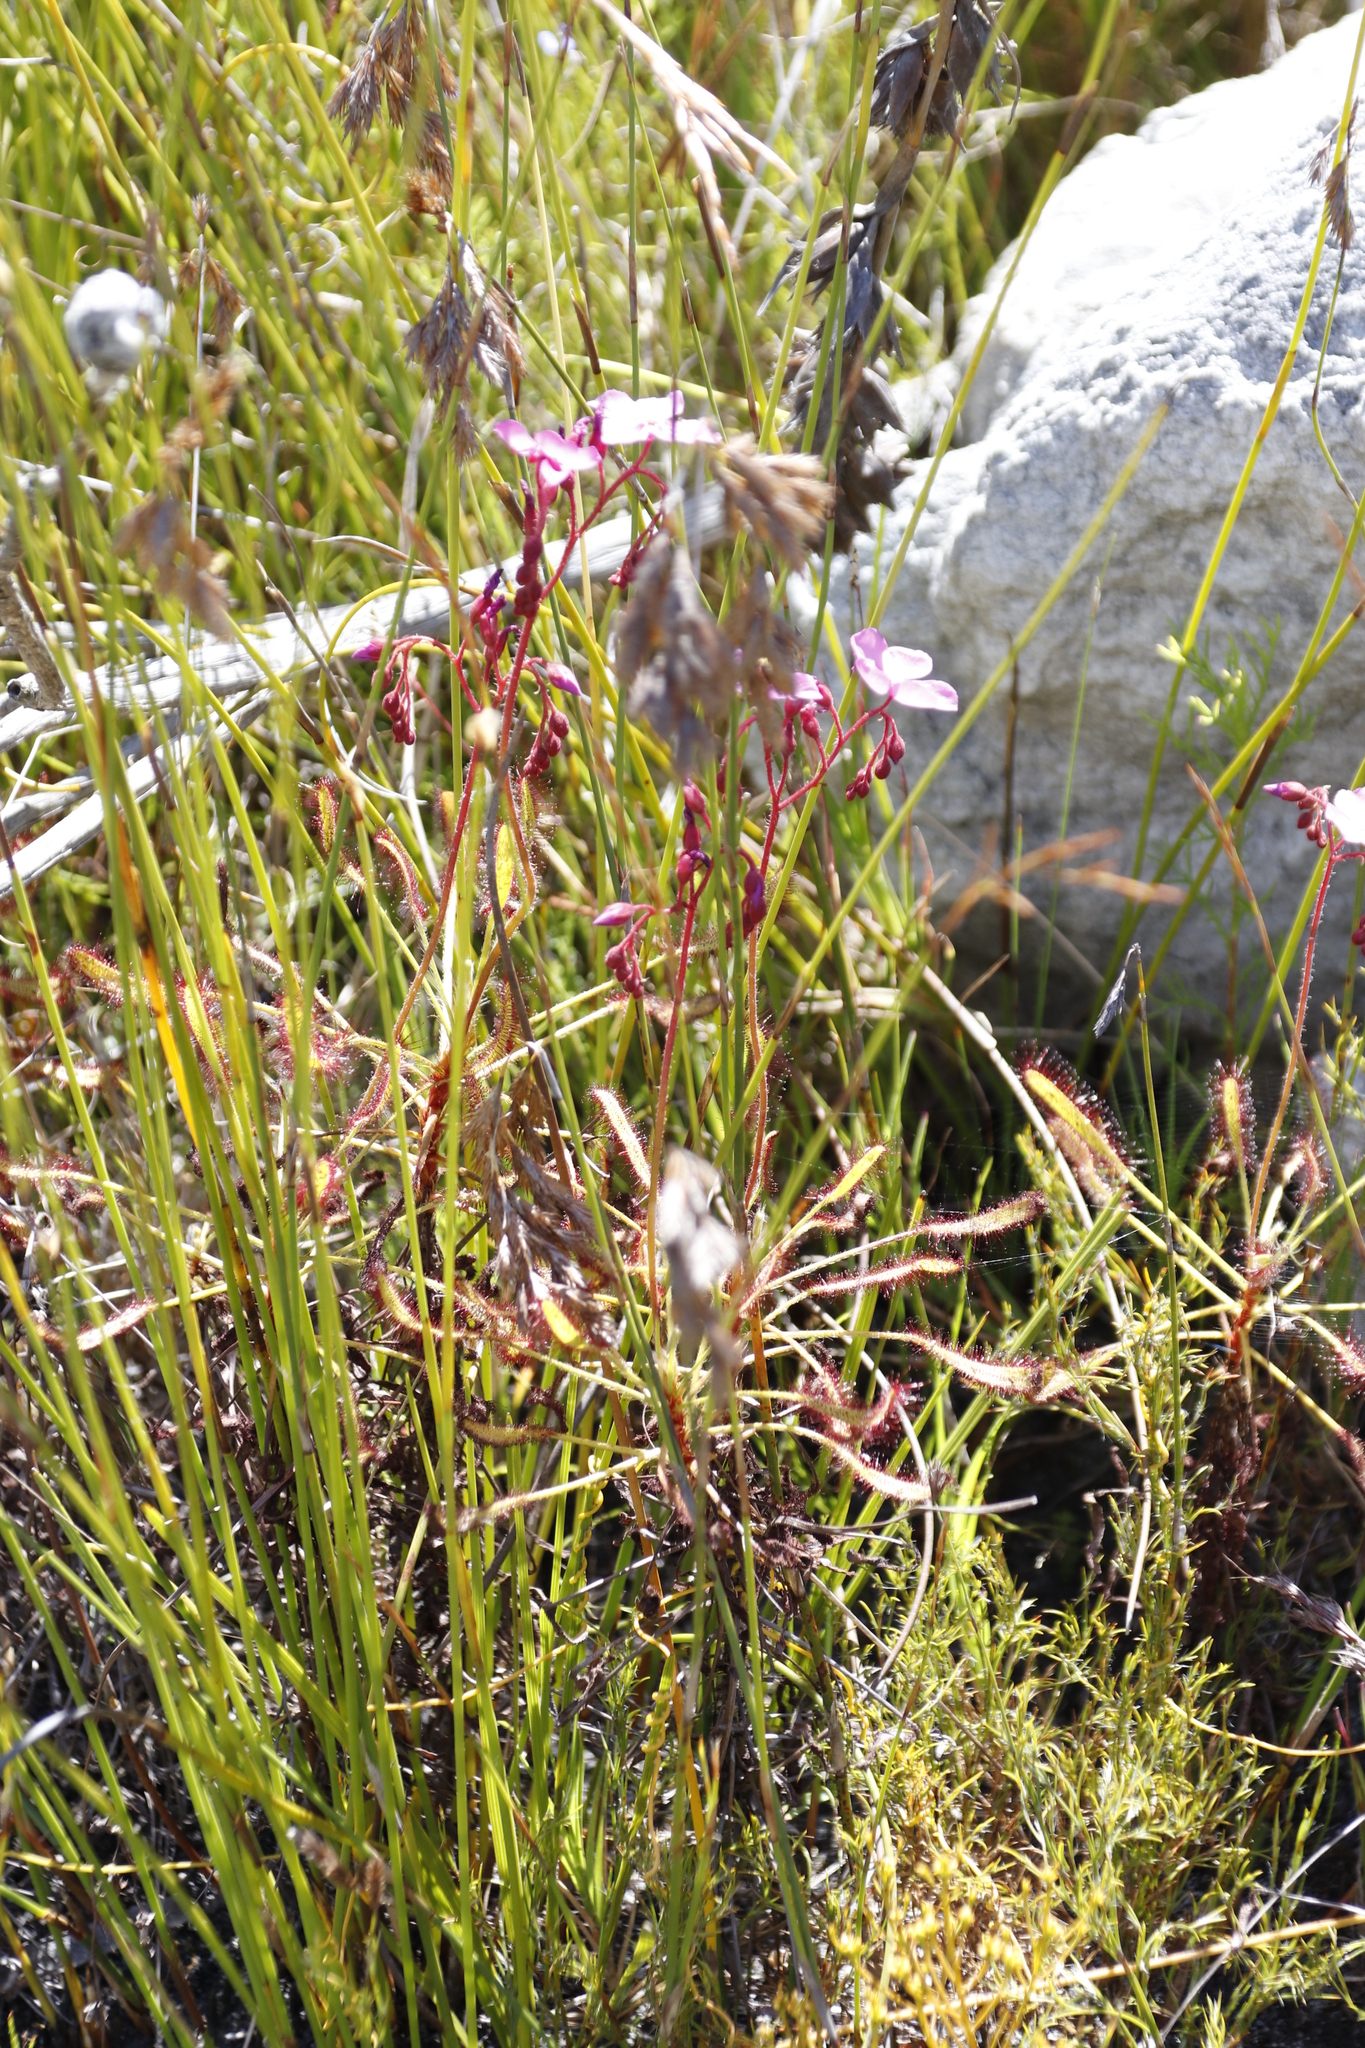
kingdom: Plantae
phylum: Tracheophyta
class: Magnoliopsida
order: Caryophyllales
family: Droseraceae
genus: Drosera
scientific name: Drosera ramentacea
